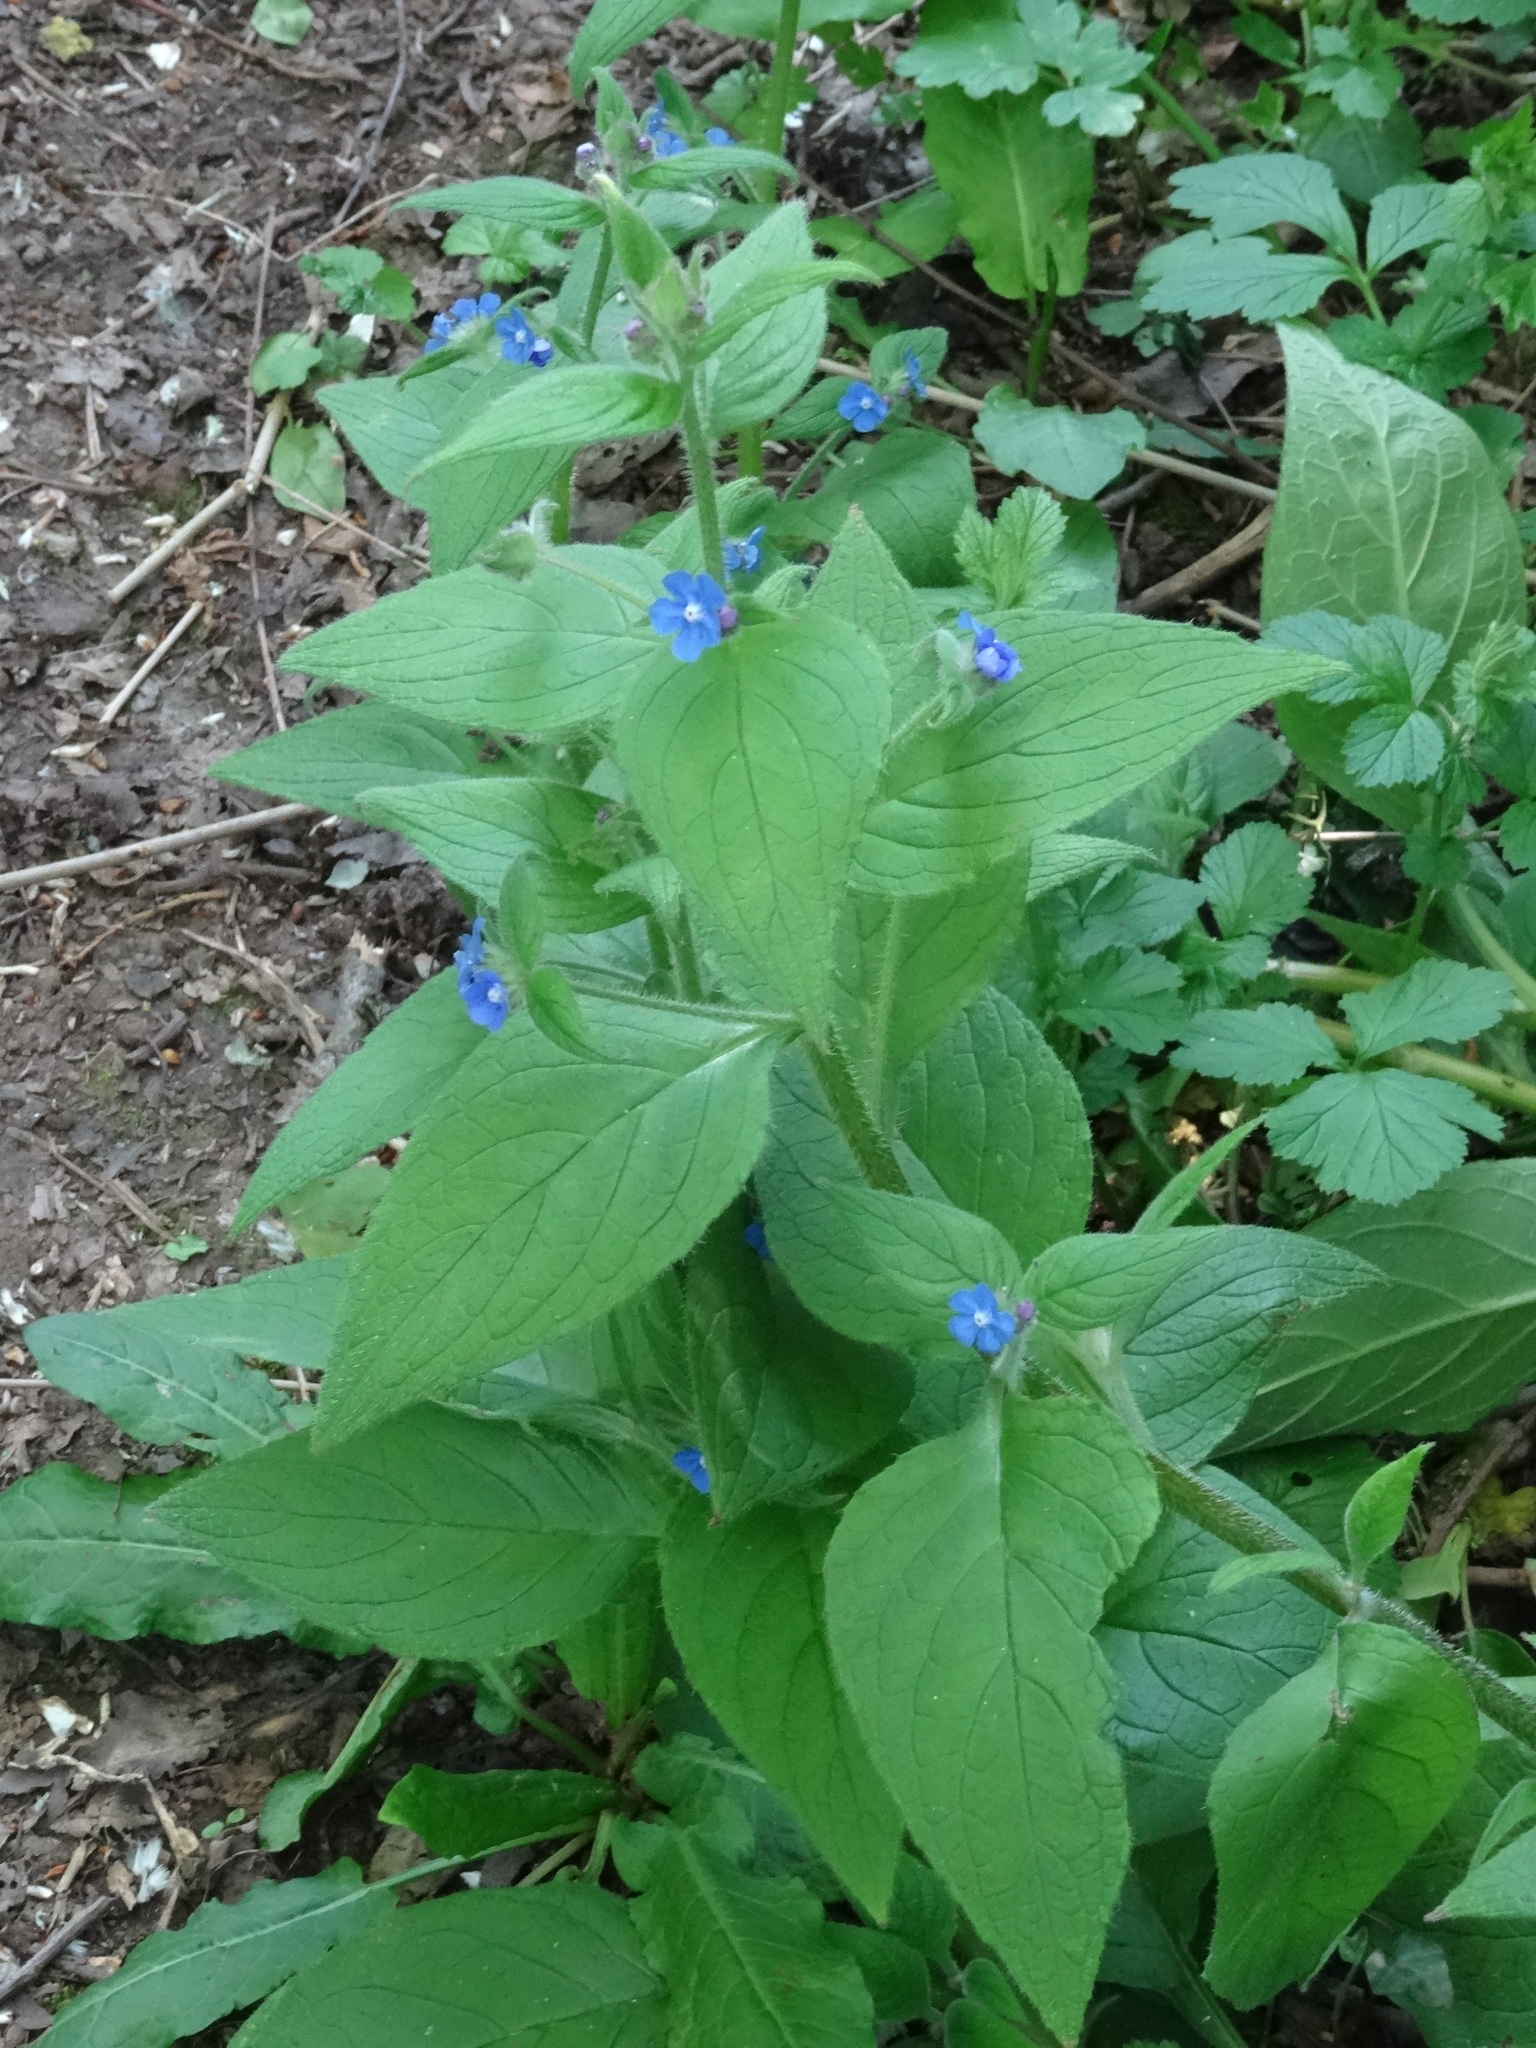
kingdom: Plantae
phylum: Tracheophyta
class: Magnoliopsida
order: Boraginales
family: Boraginaceae
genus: Pentaglottis
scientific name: Pentaglottis sempervirens
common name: Green alkanet
